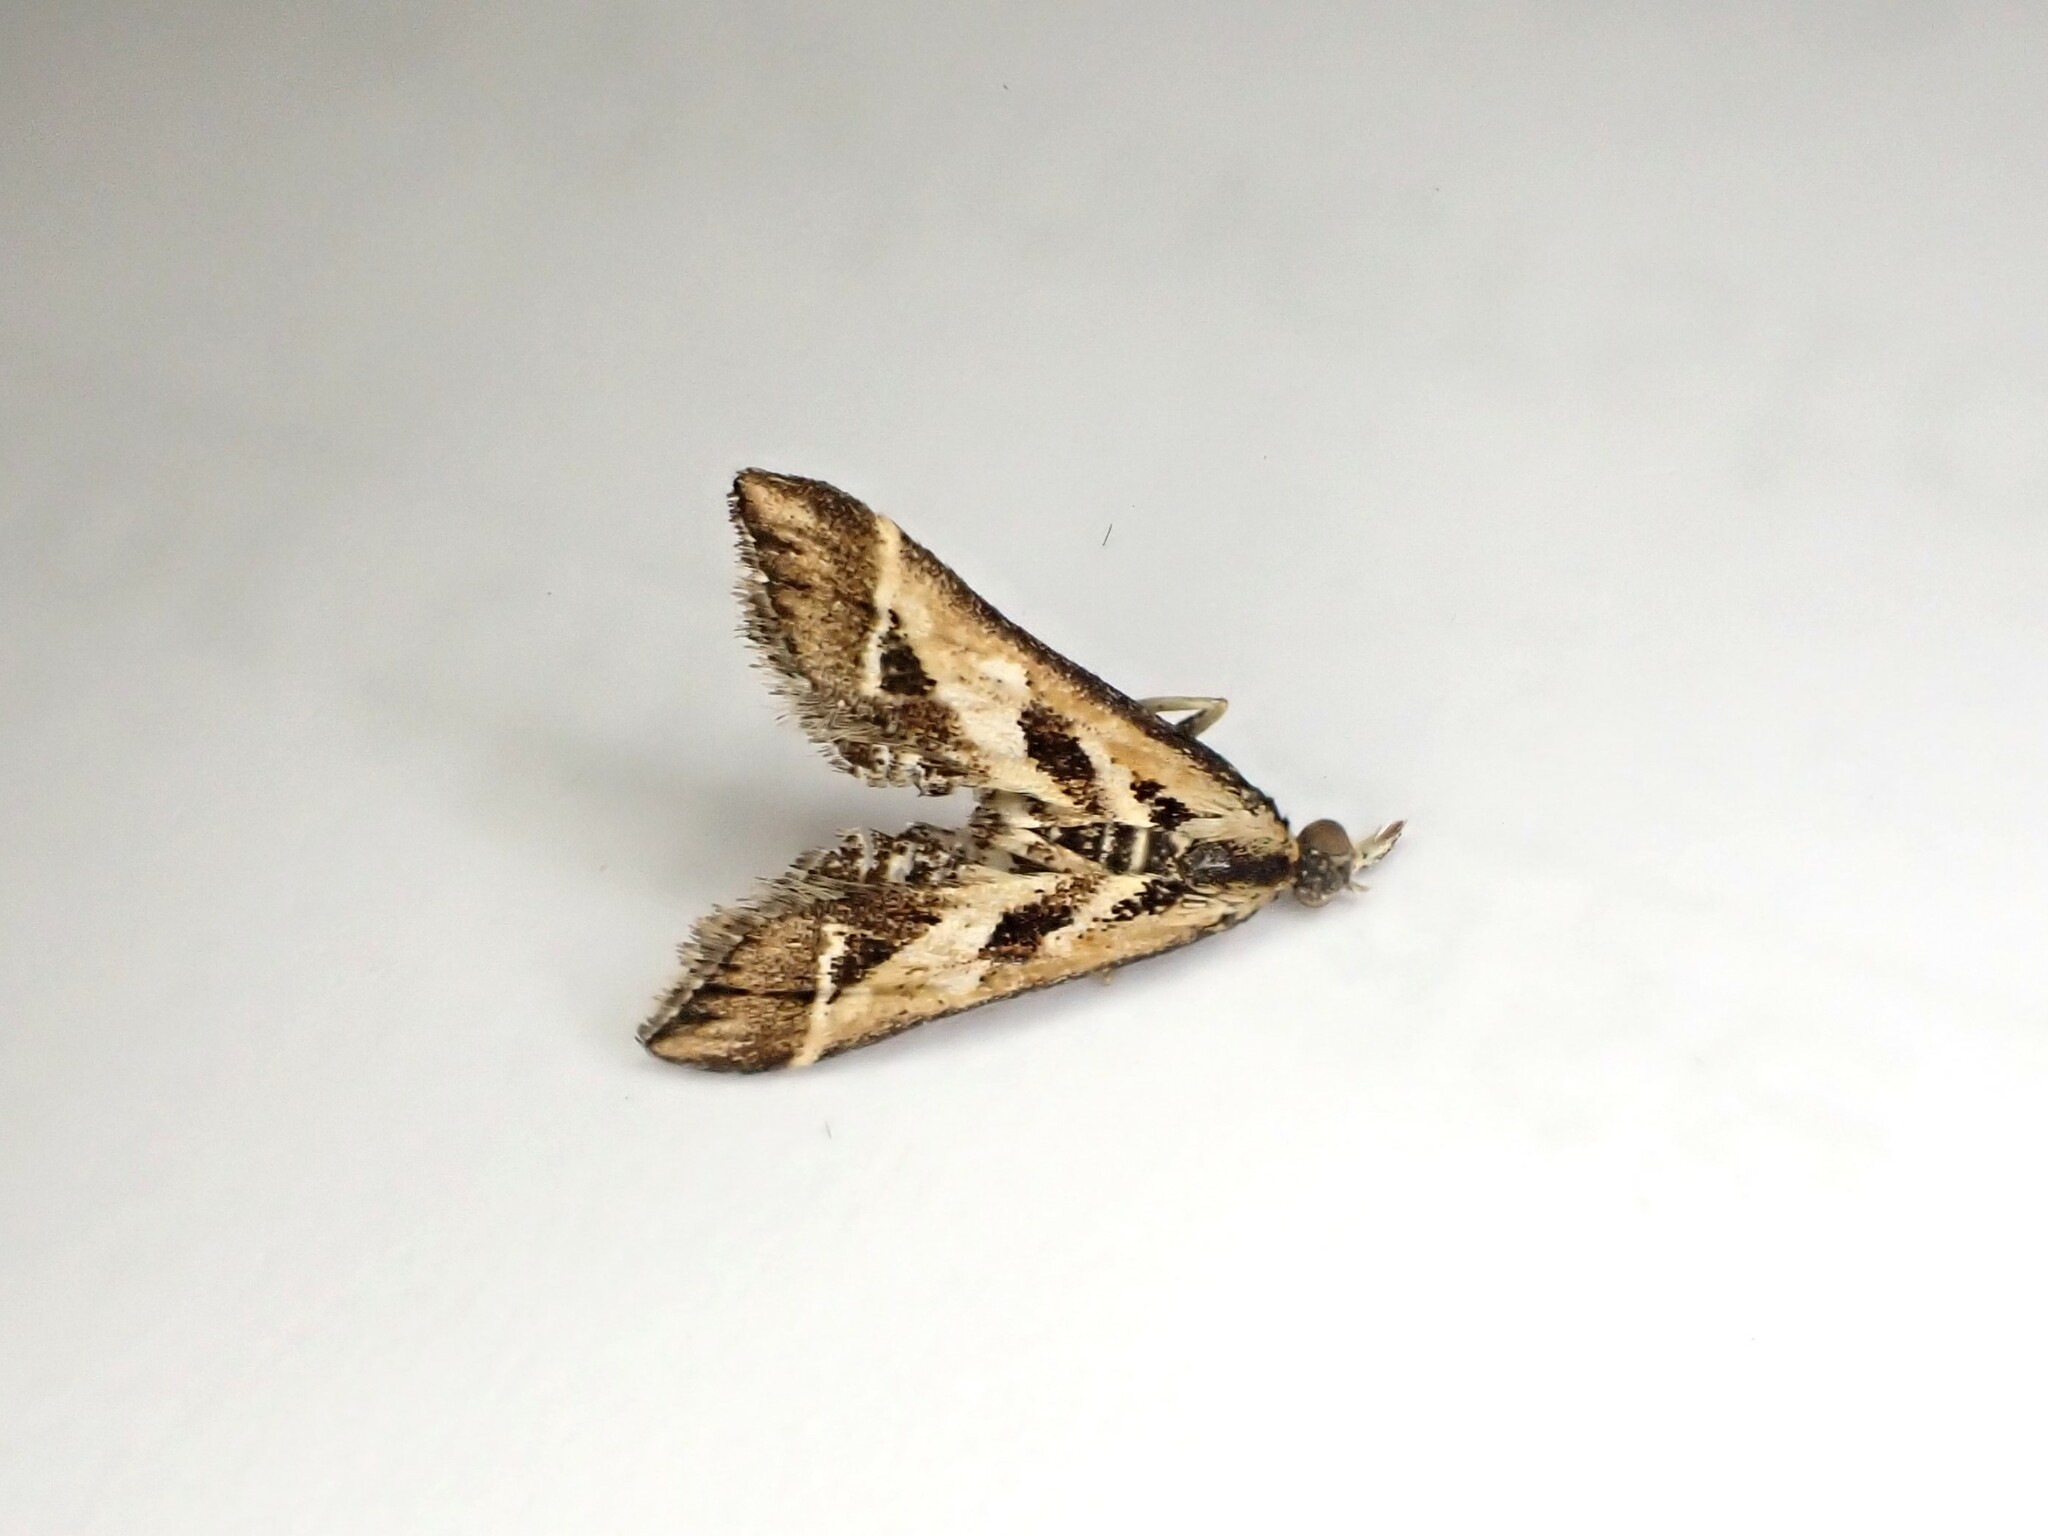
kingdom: Animalia
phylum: Arthropoda
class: Insecta
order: Lepidoptera
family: Crambidae
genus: Diasemia
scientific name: Diasemia grammalis
